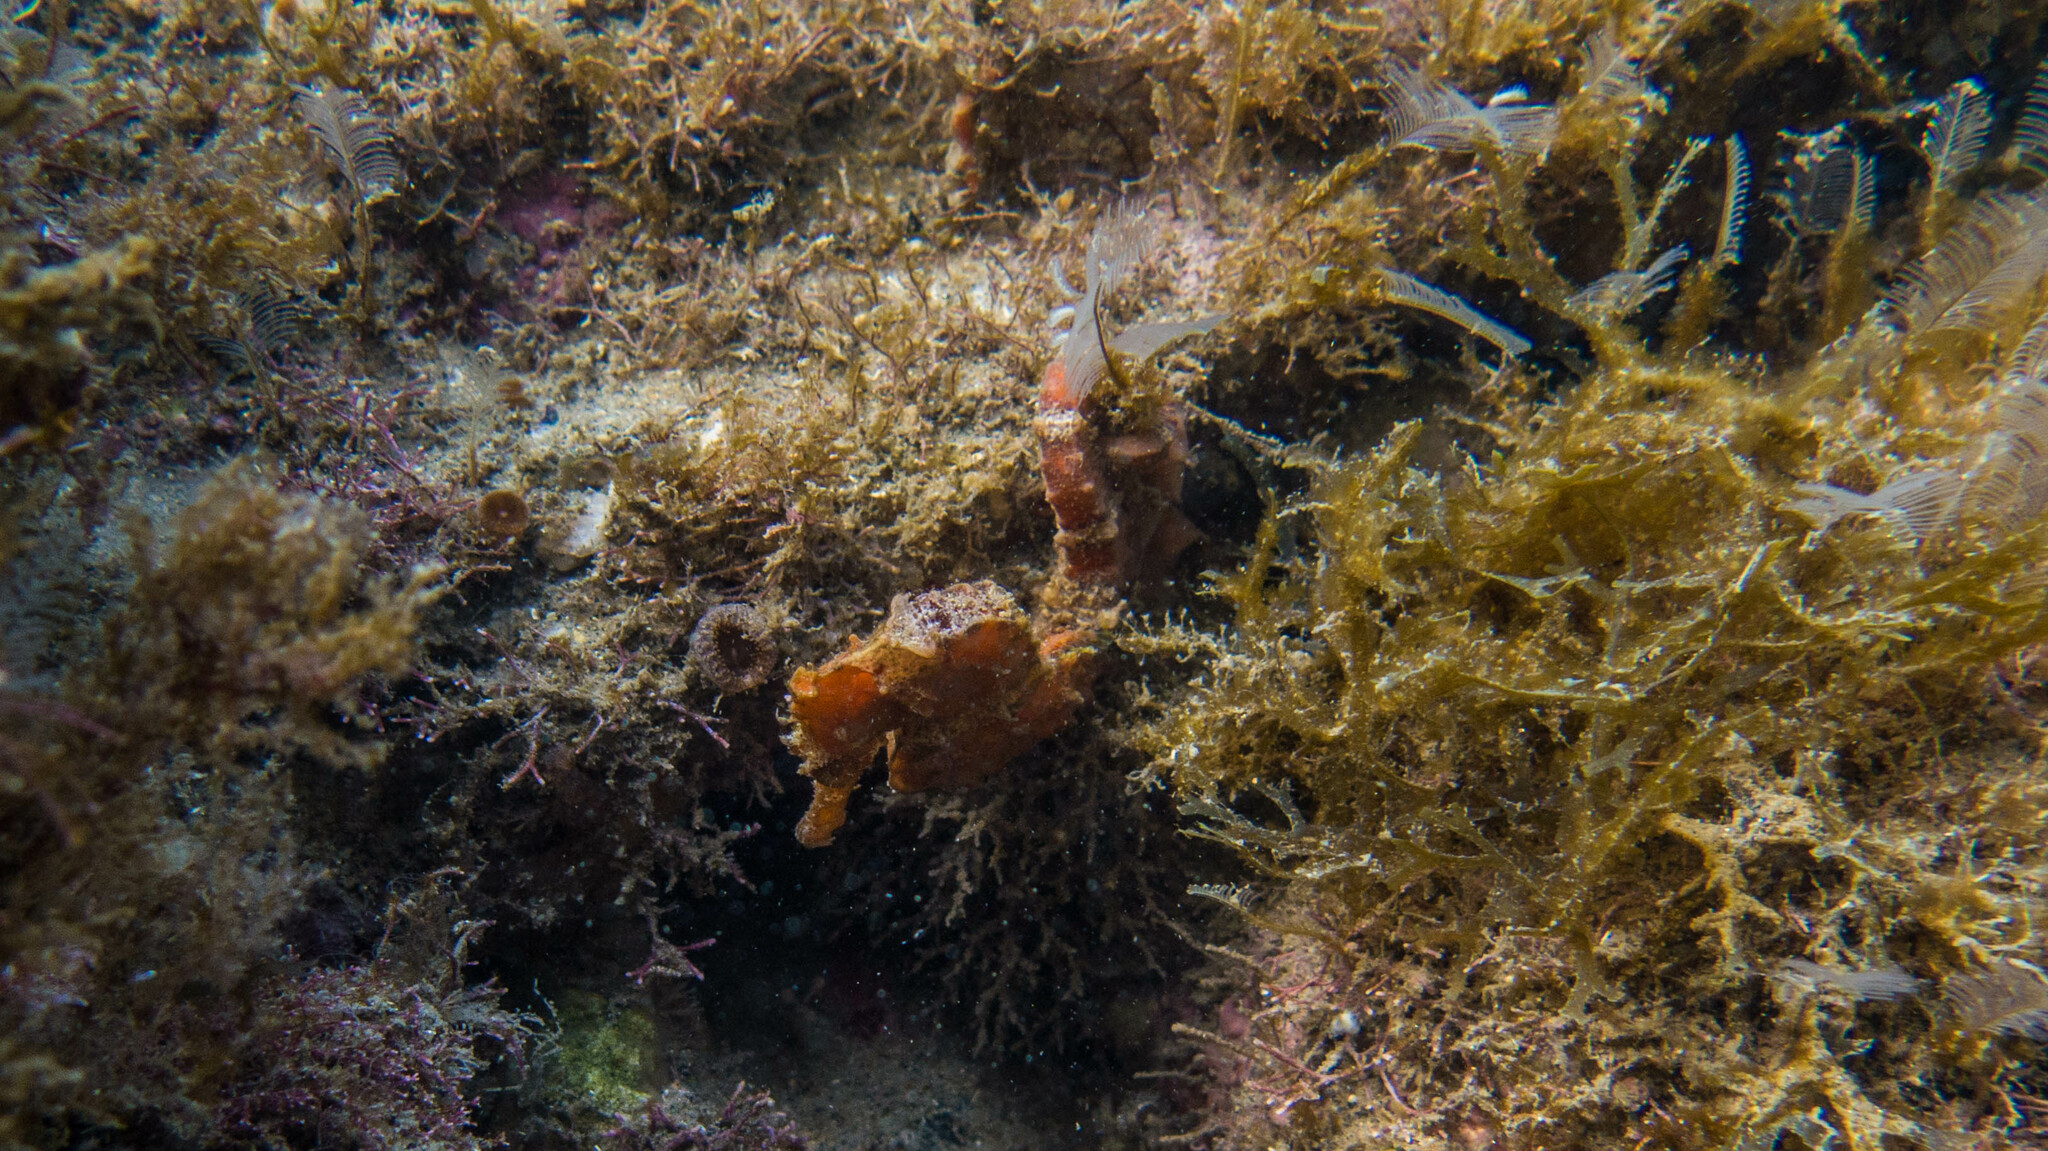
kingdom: Animalia
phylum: Chordata
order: Syngnathiformes
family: Syngnathidae
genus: Hippocampus
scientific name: Hippocampus reidi
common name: Slender seahorse
